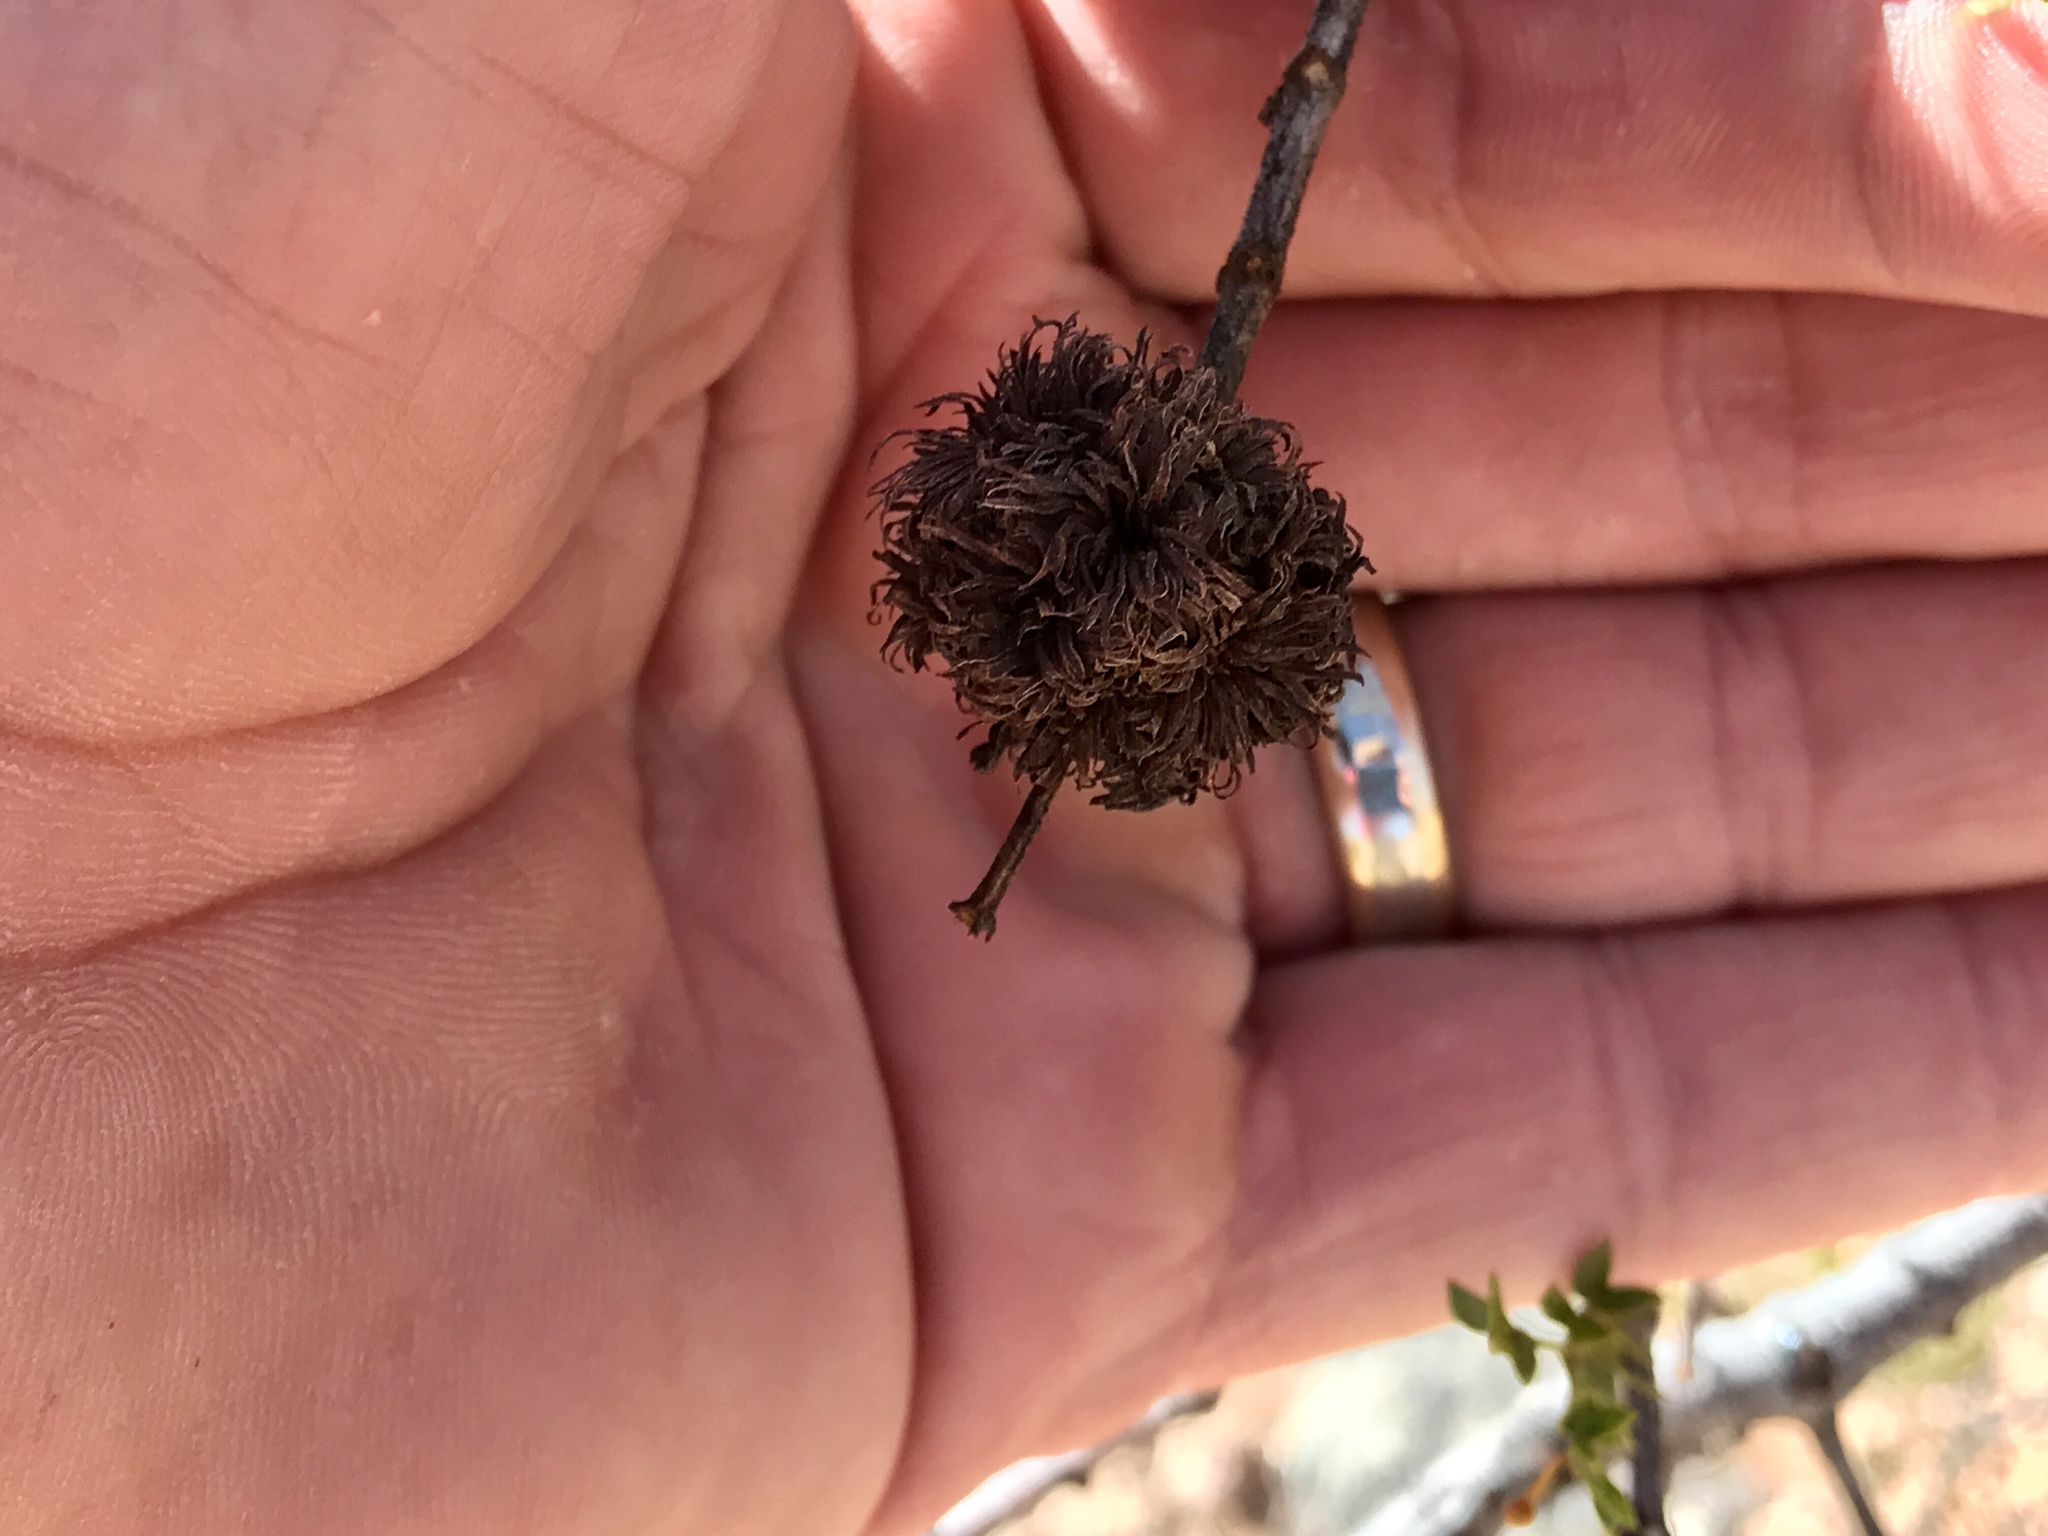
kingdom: Animalia
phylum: Arthropoda
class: Insecta
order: Diptera
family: Cecidomyiidae
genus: Asphondylia
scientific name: Asphondylia auripila
